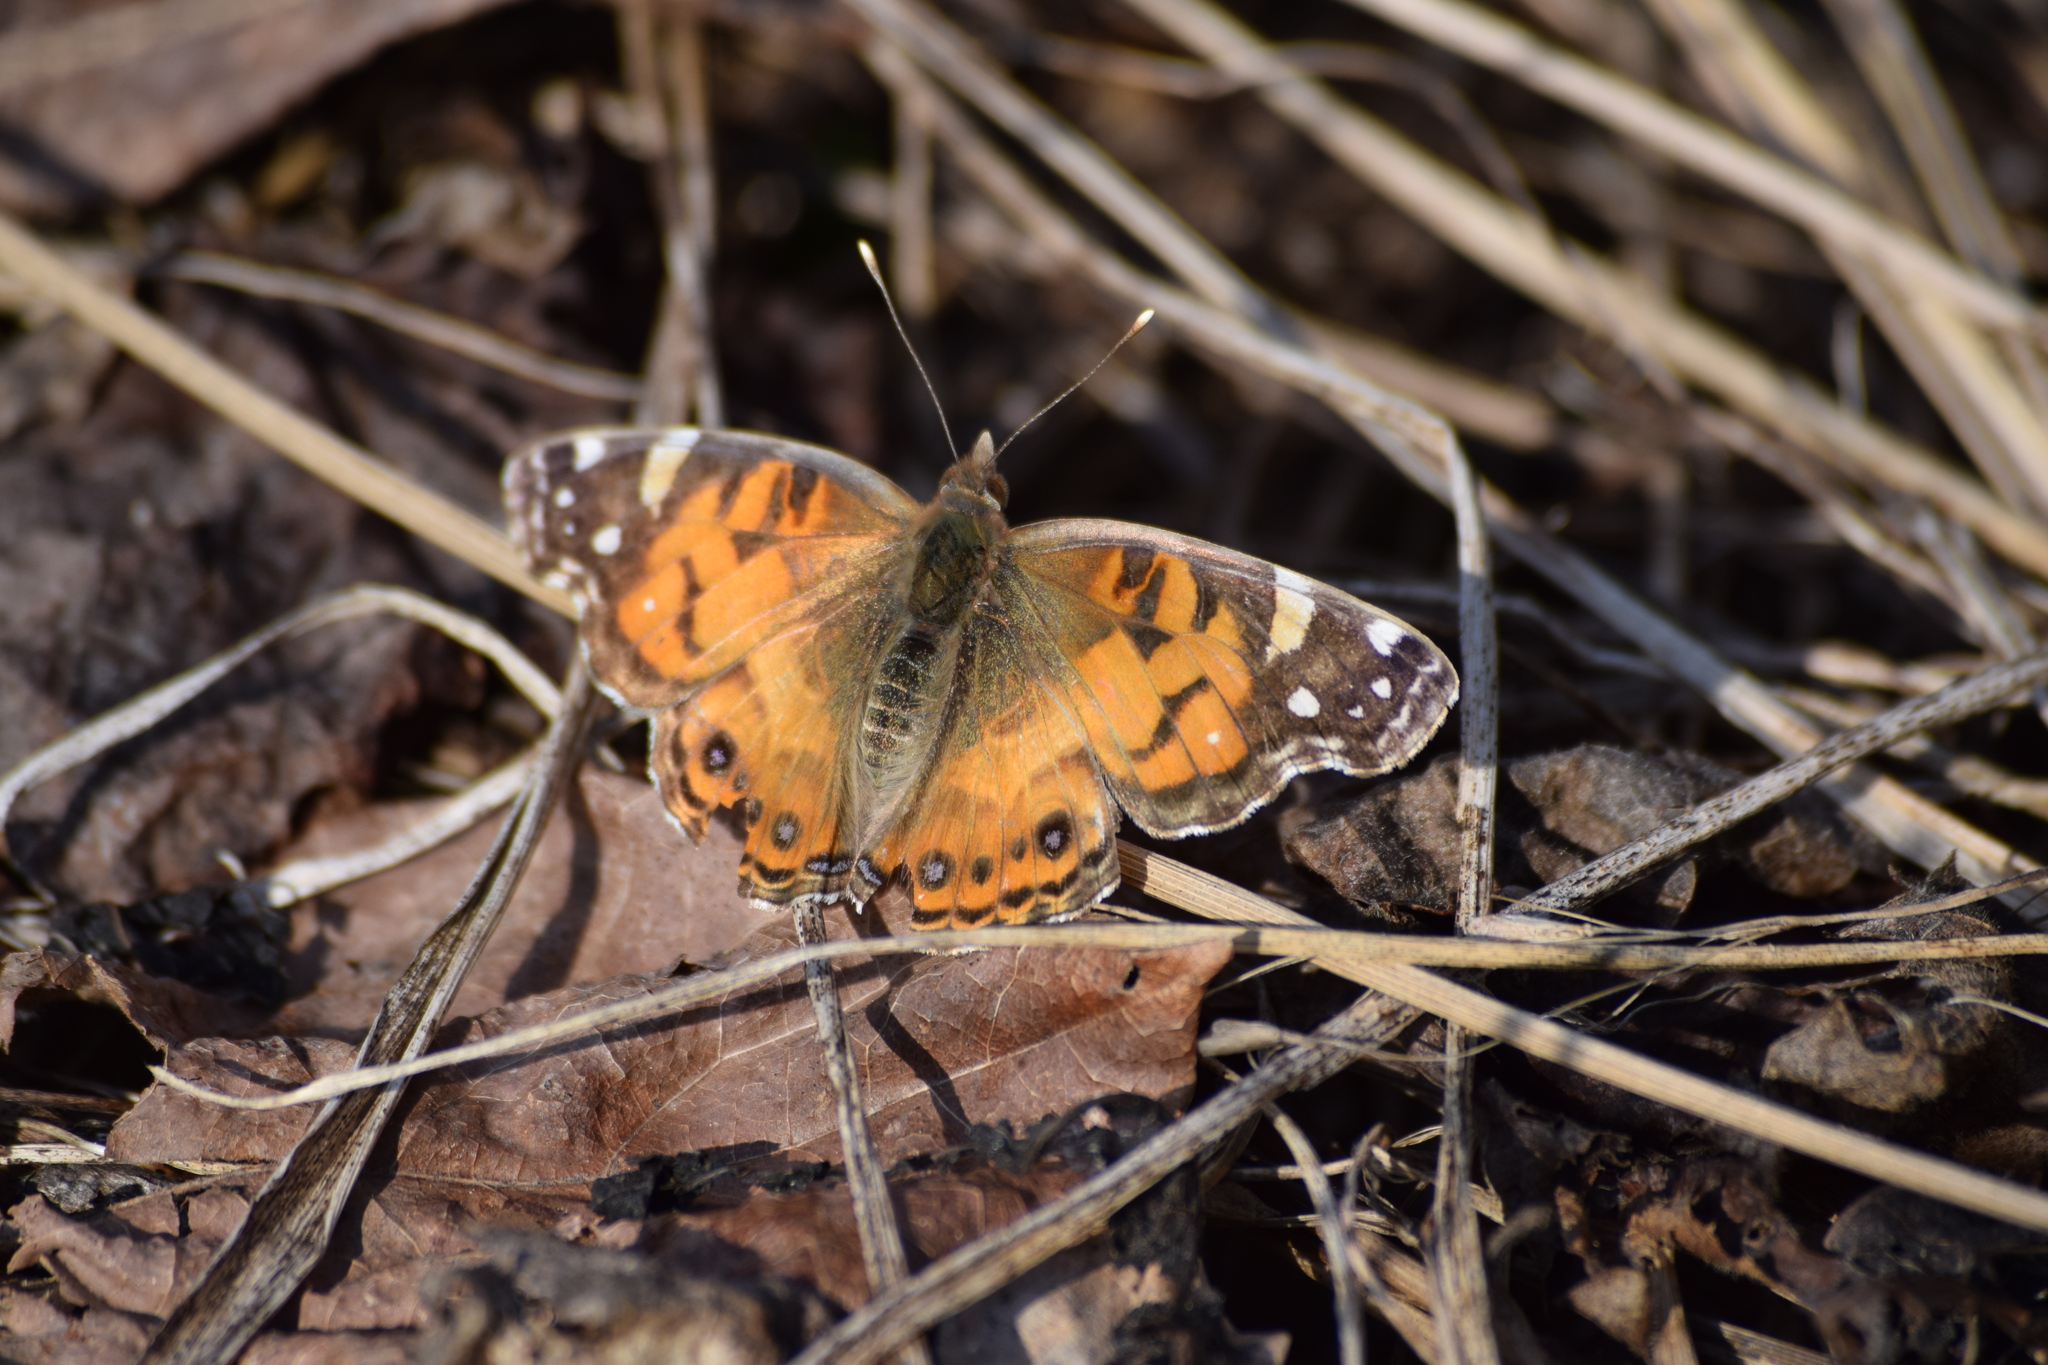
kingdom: Animalia
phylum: Arthropoda
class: Insecta
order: Lepidoptera
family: Nymphalidae
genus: Vanessa
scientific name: Vanessa virginiensis
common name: American lady
